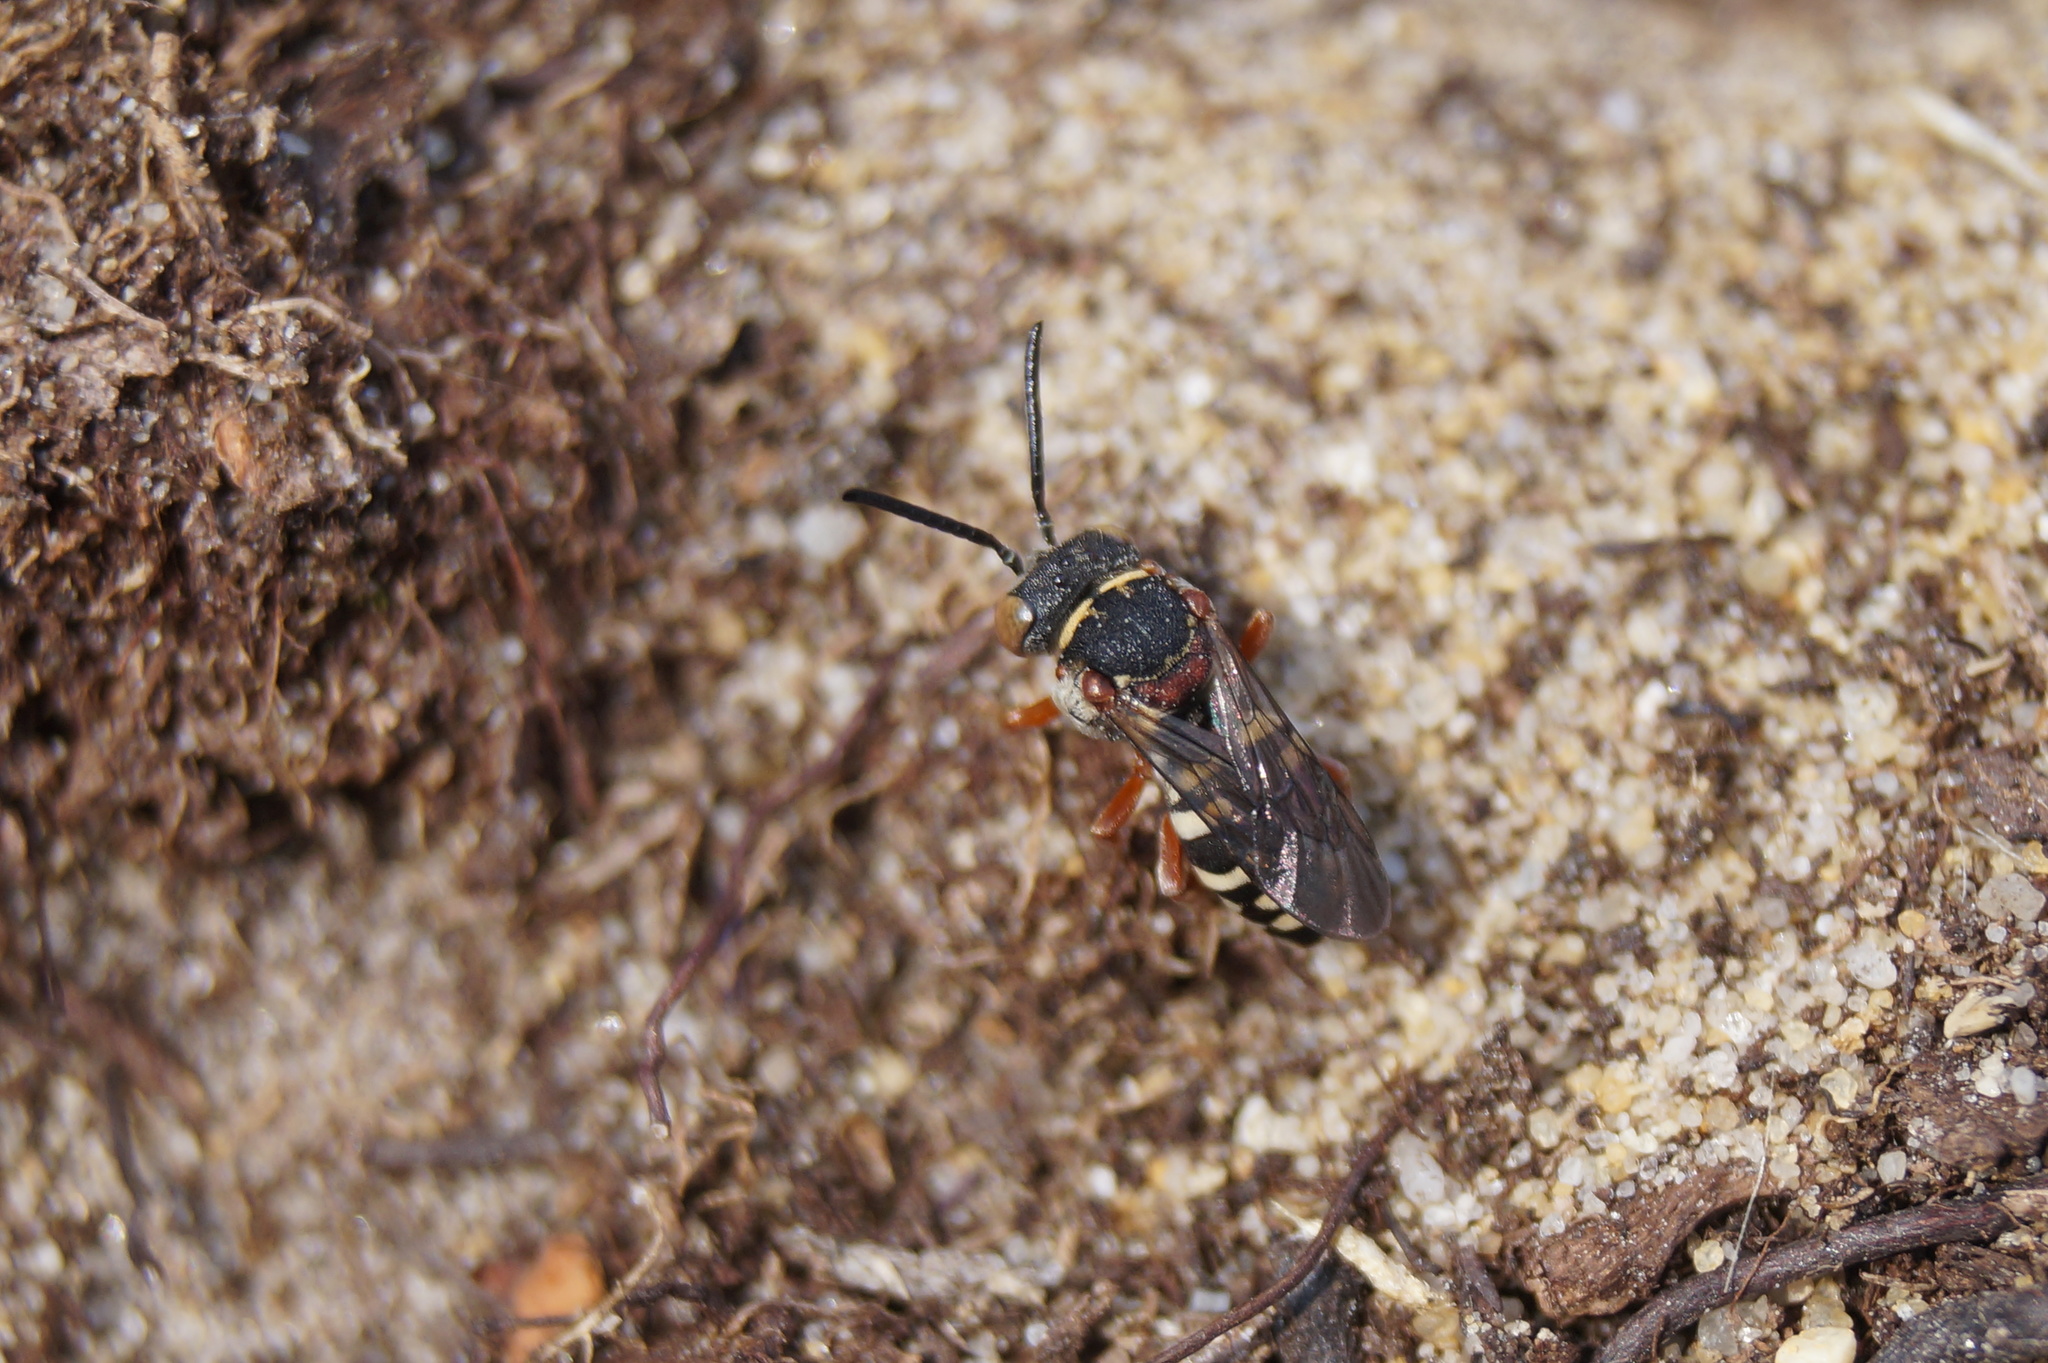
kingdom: Animalia
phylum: Arthropoda
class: Insecta
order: Hymenoptera
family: Apidae
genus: Epeolus
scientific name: Epeolus cruciger
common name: Red-thighed epeolus
